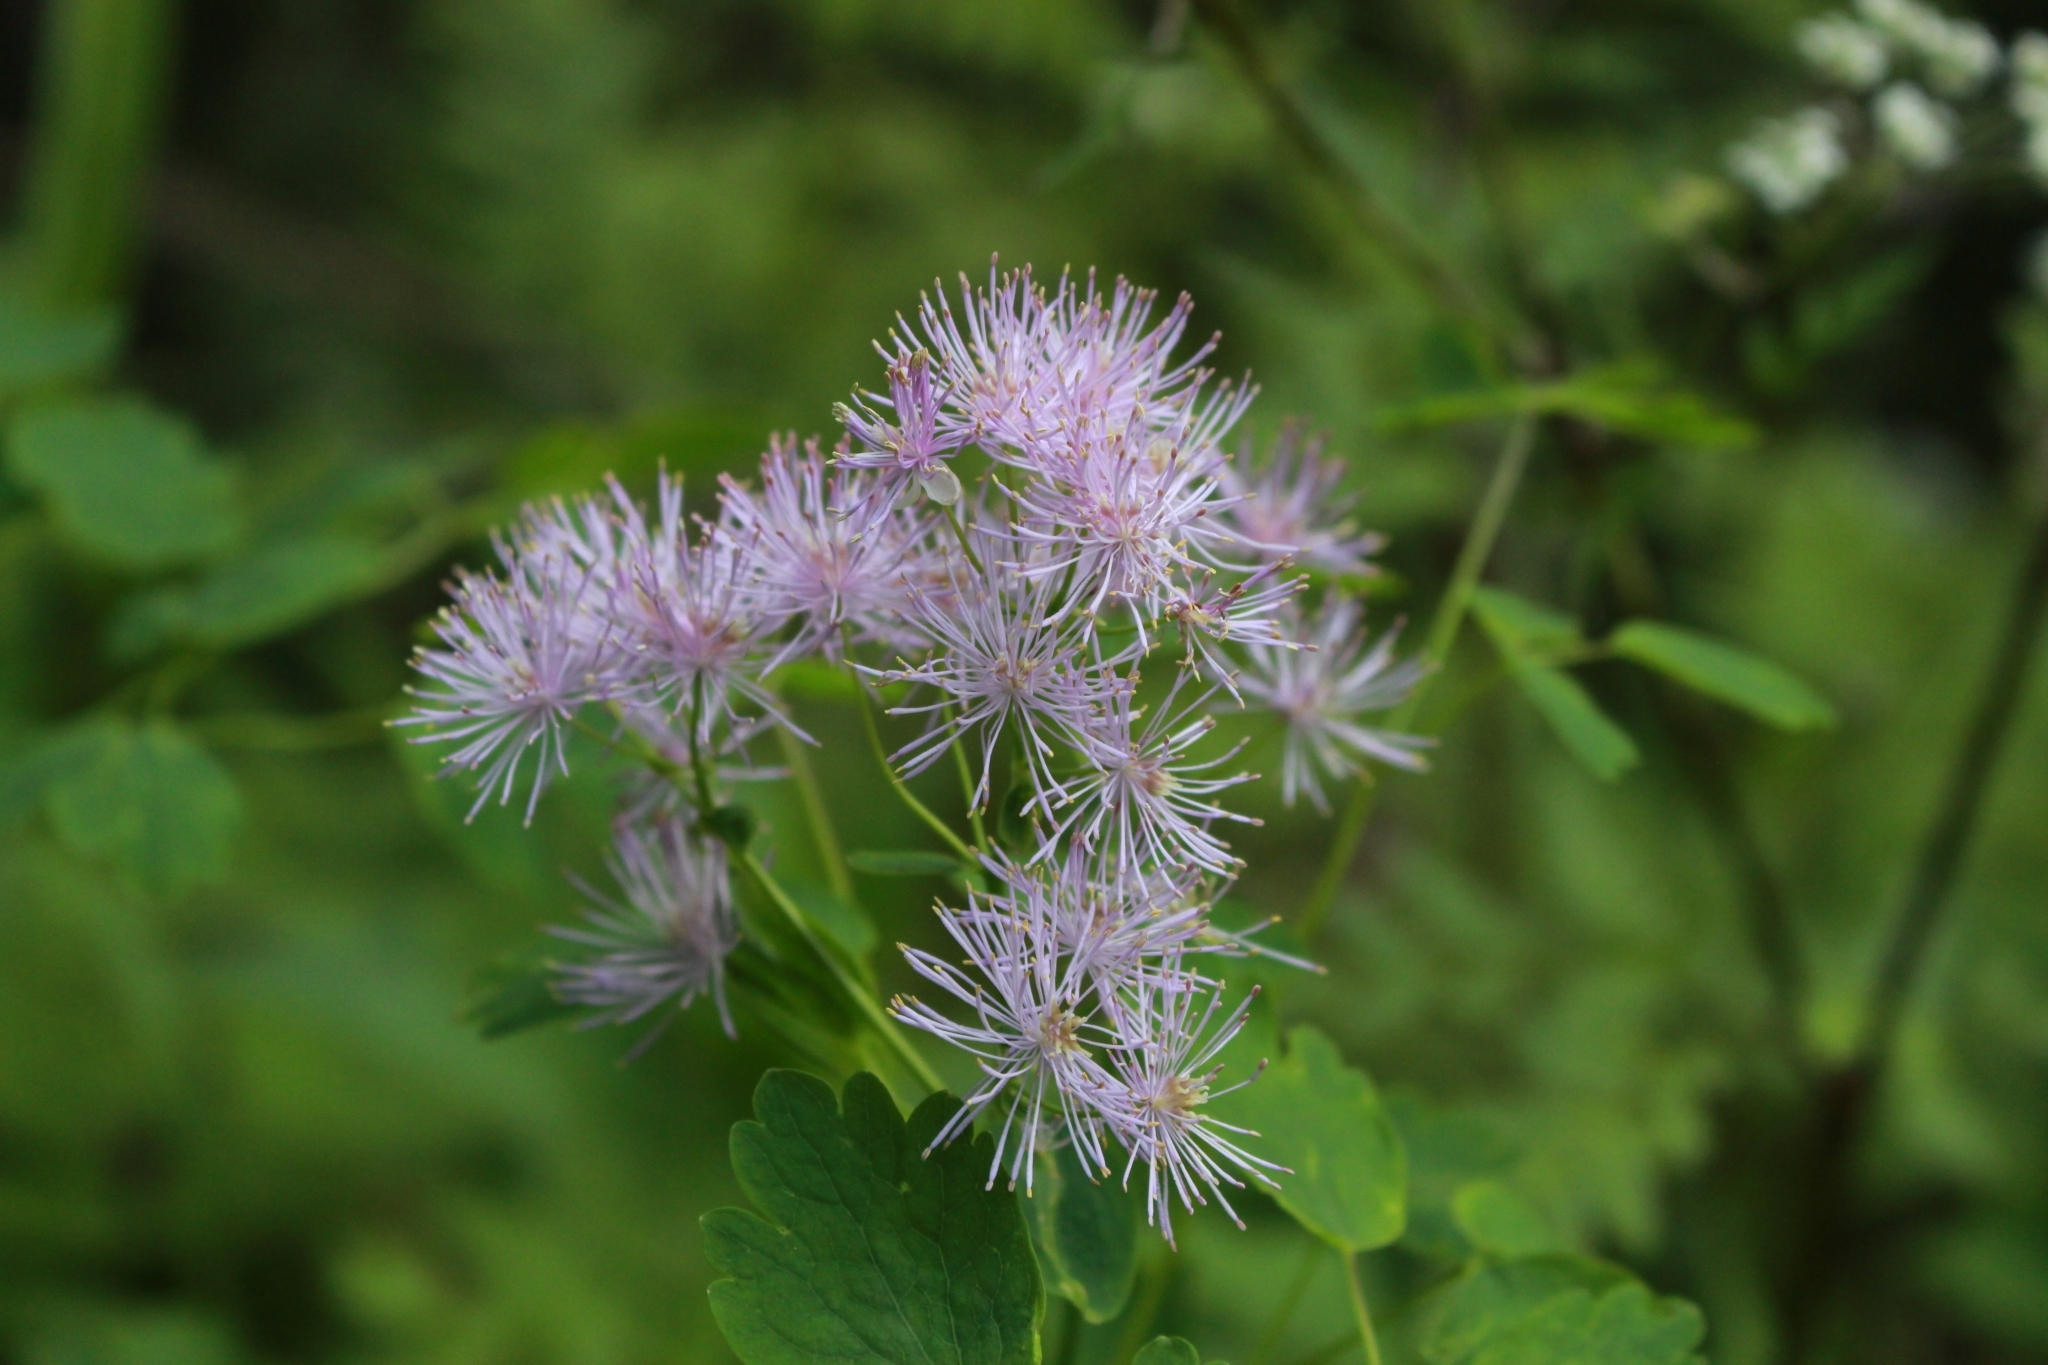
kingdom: Plantae
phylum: Tracheophyta
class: Magnoliopsida
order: Ranunculales
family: Ranunculaceae
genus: Thalictrum
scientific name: Thalictrum aquilegiifolium
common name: French meadow-rue
